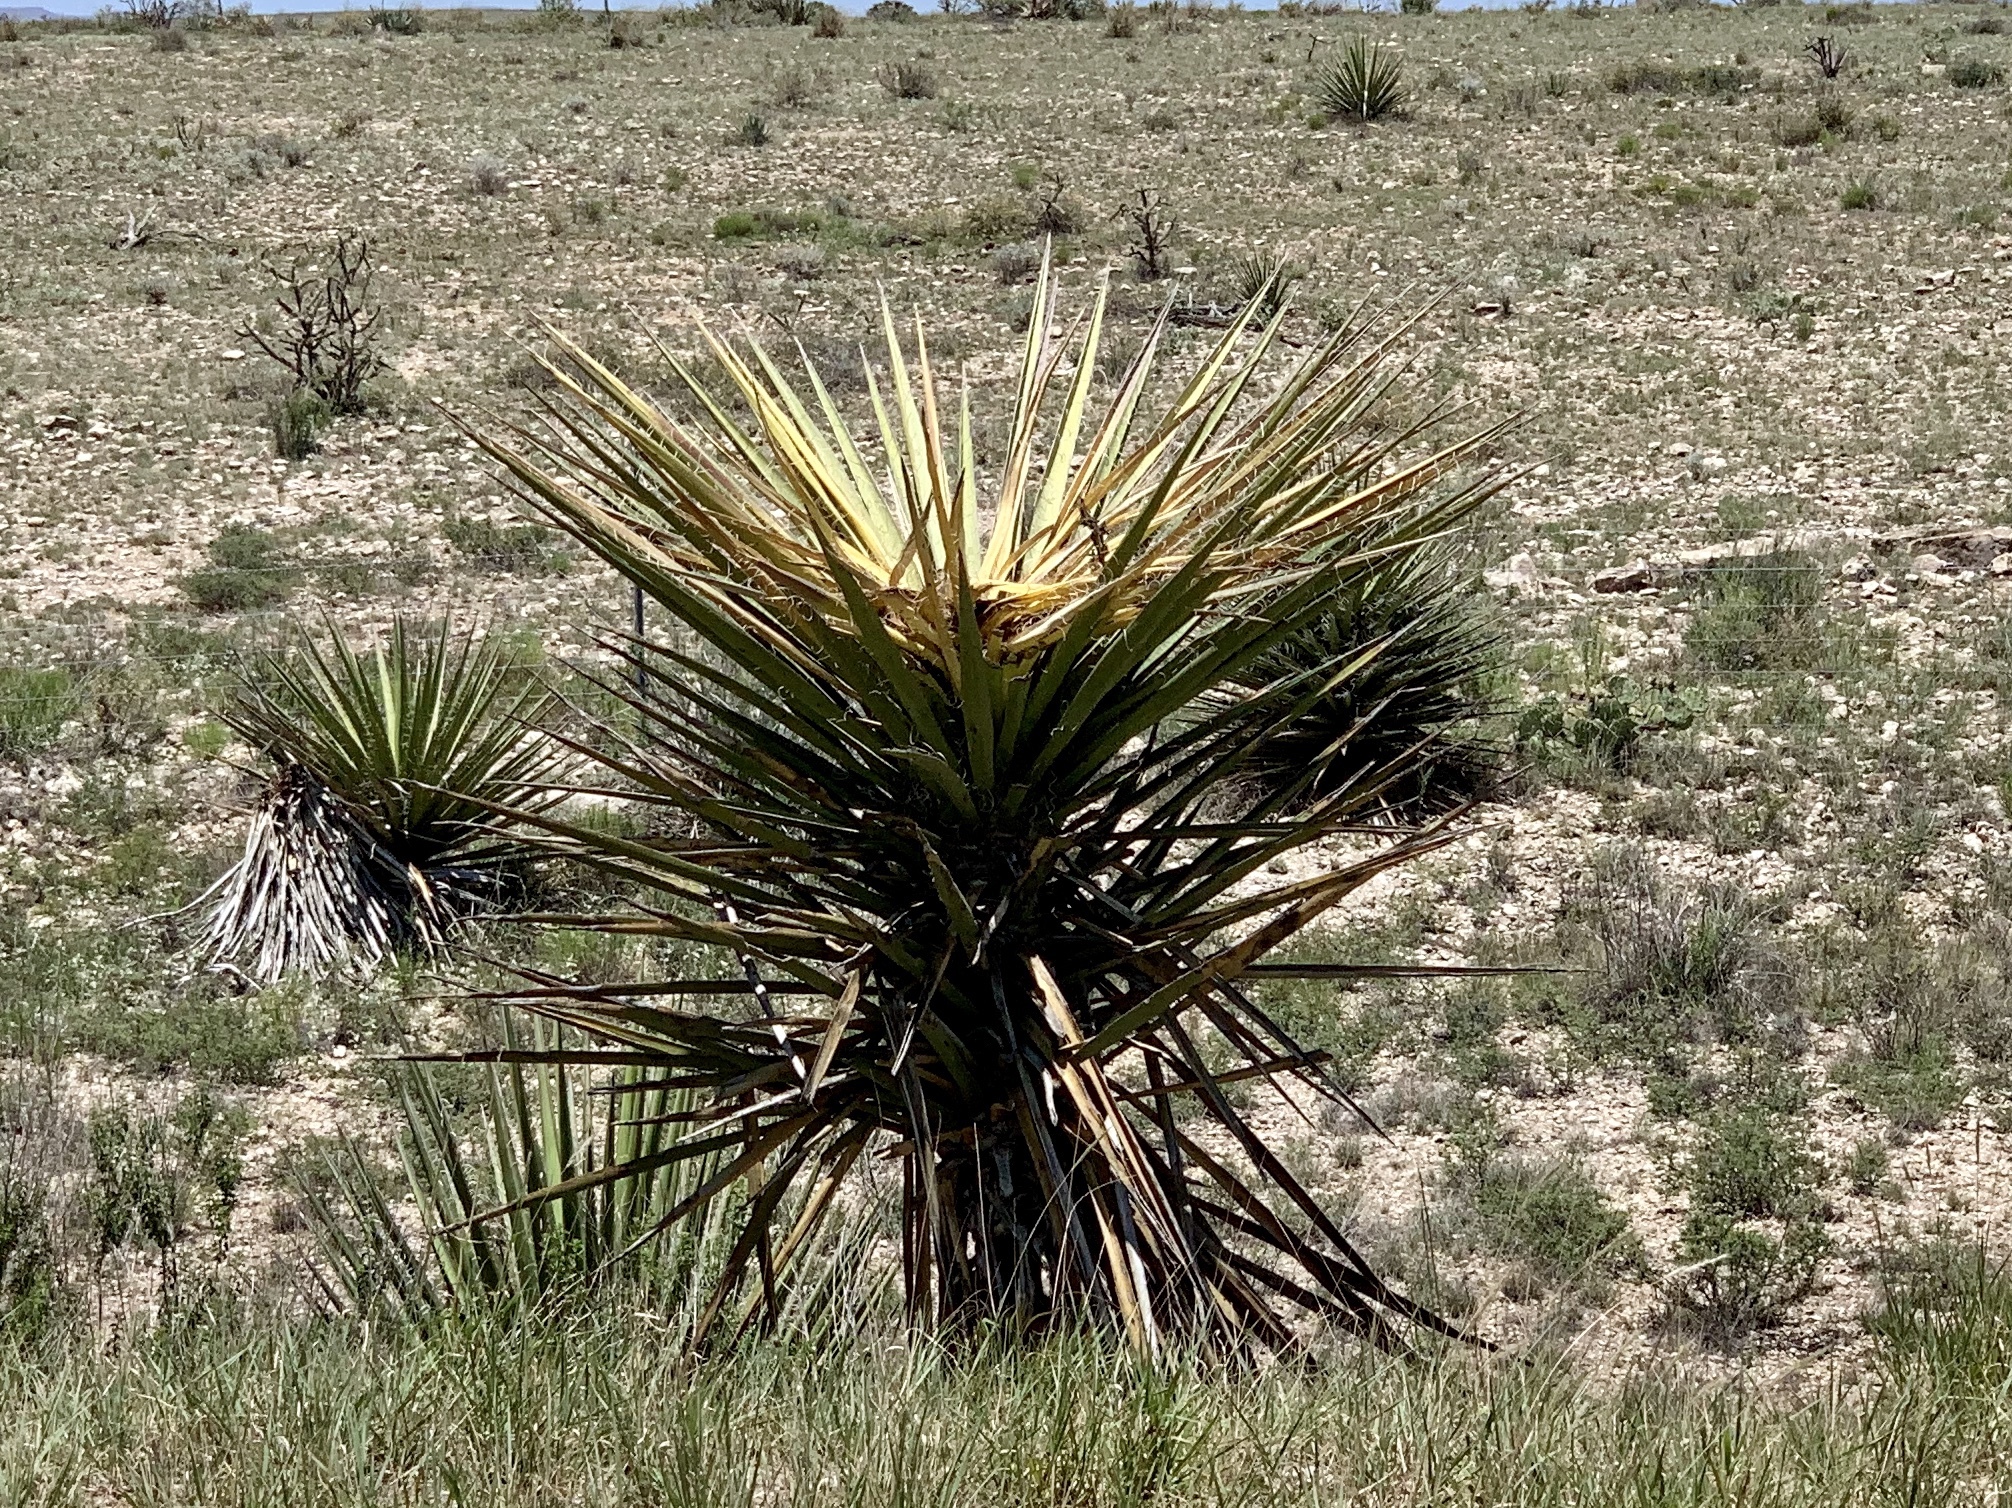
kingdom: Plantae
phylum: Tracheophyta
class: Liliopsida
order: Asparagales
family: Asparagaceae
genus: Yucca
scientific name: Yucca treculiana
